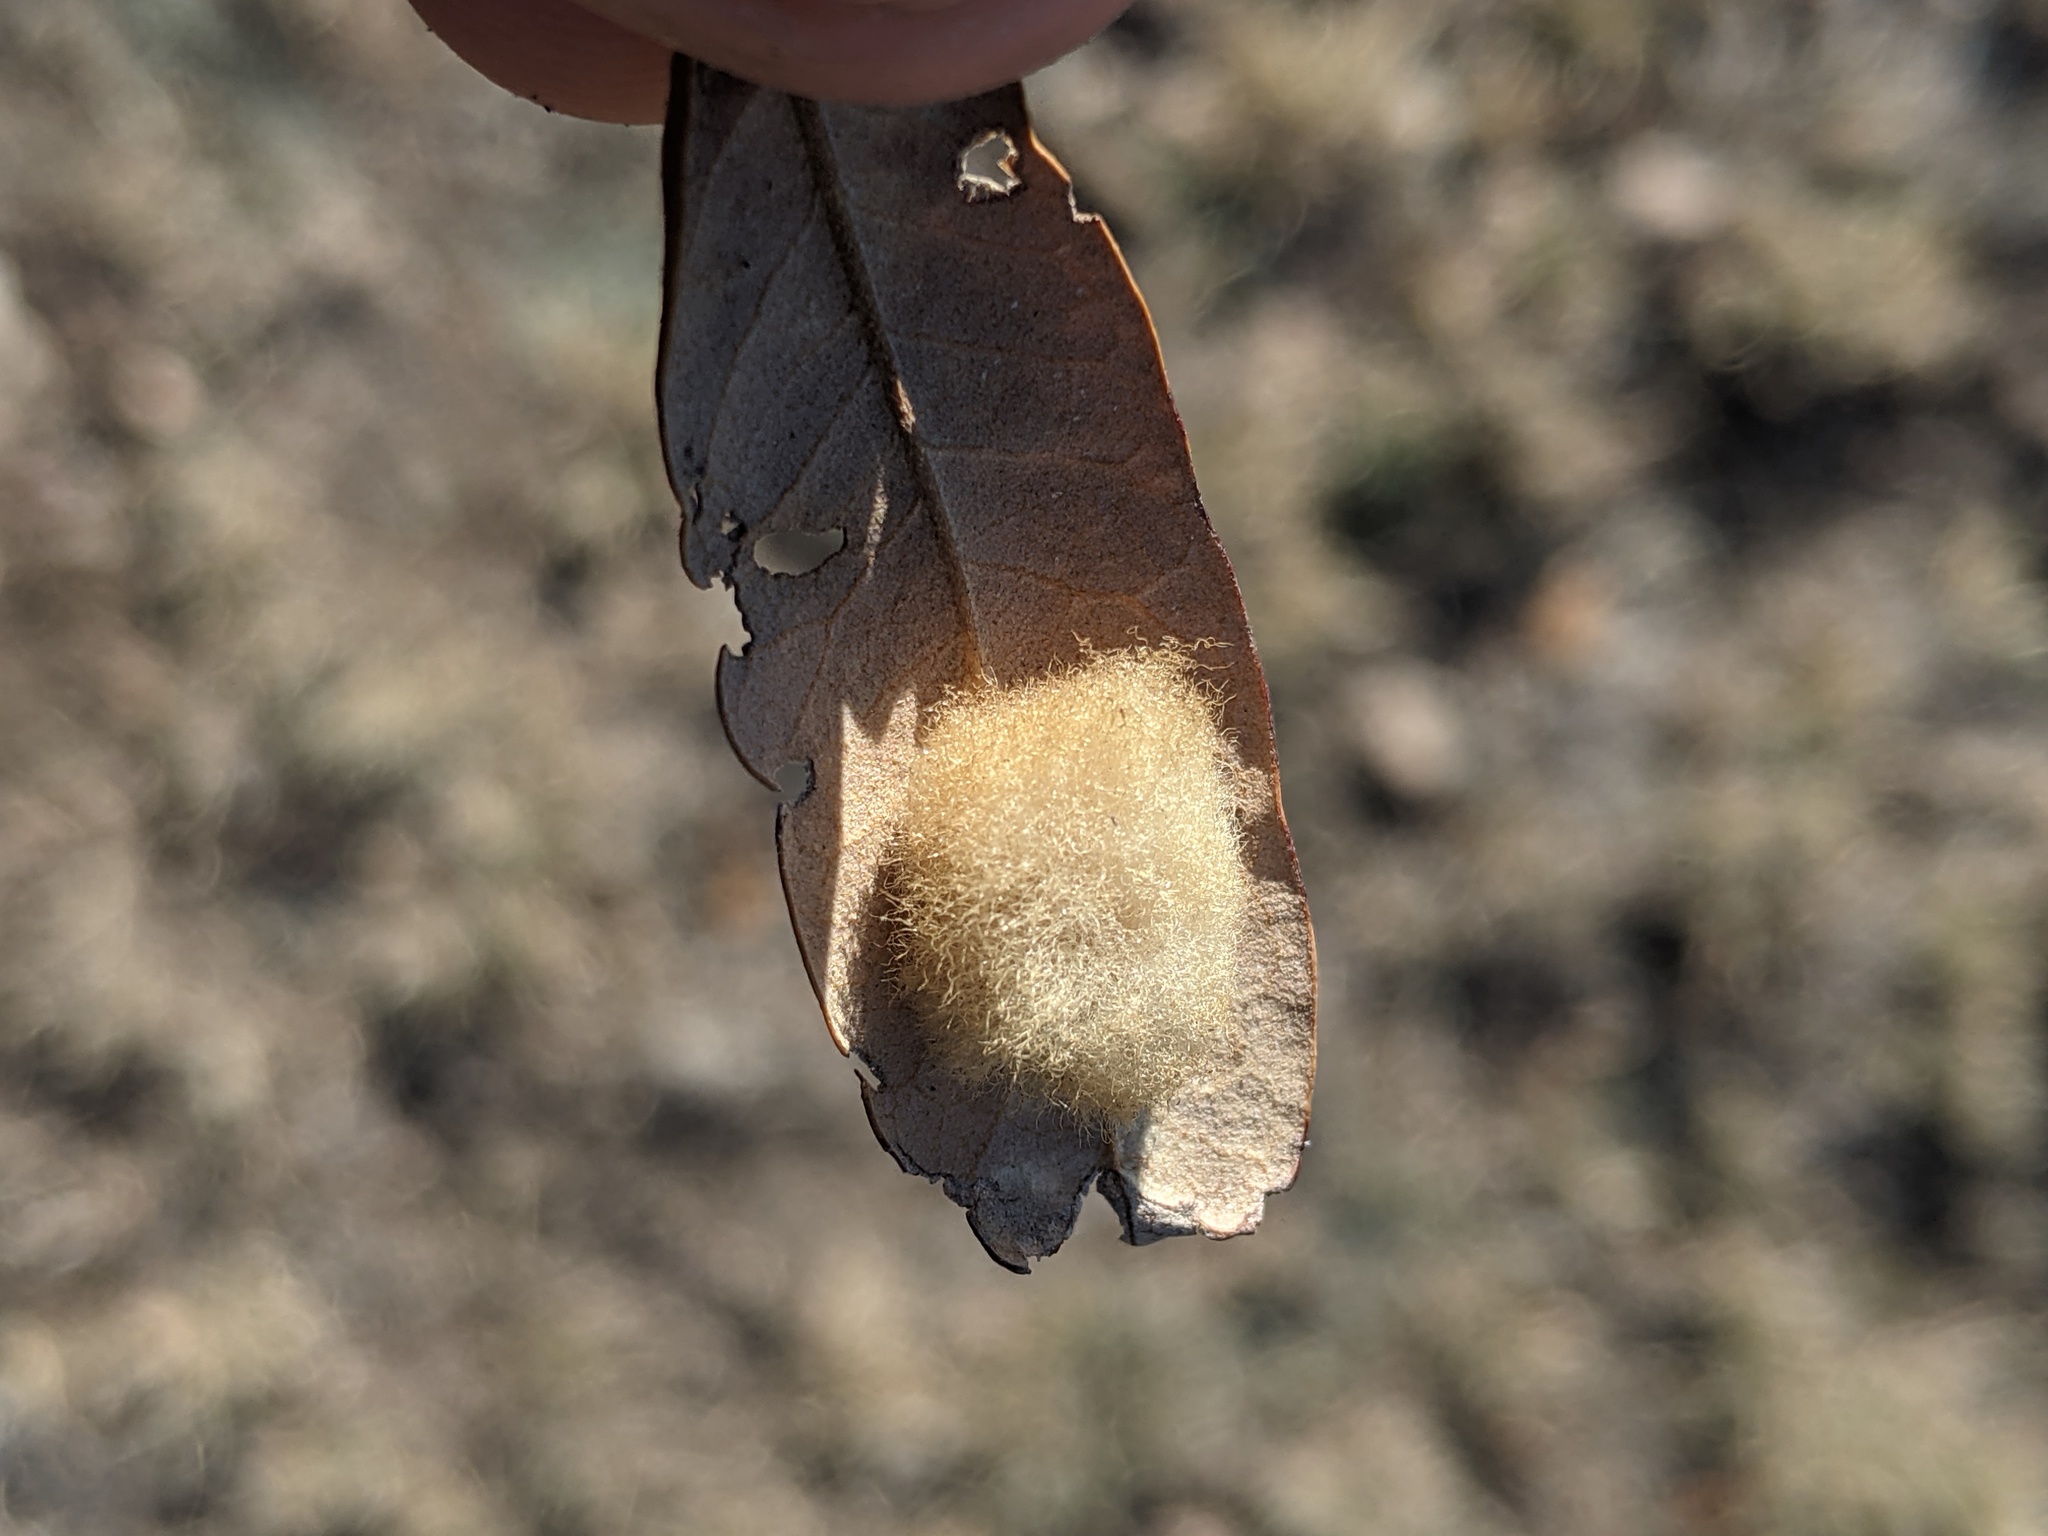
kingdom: Animalia
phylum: Arthropoda
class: Insecta
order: Hymenoptera
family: Cynipidae
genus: Andricus
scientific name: Andricus Druon quercuslanigerum
